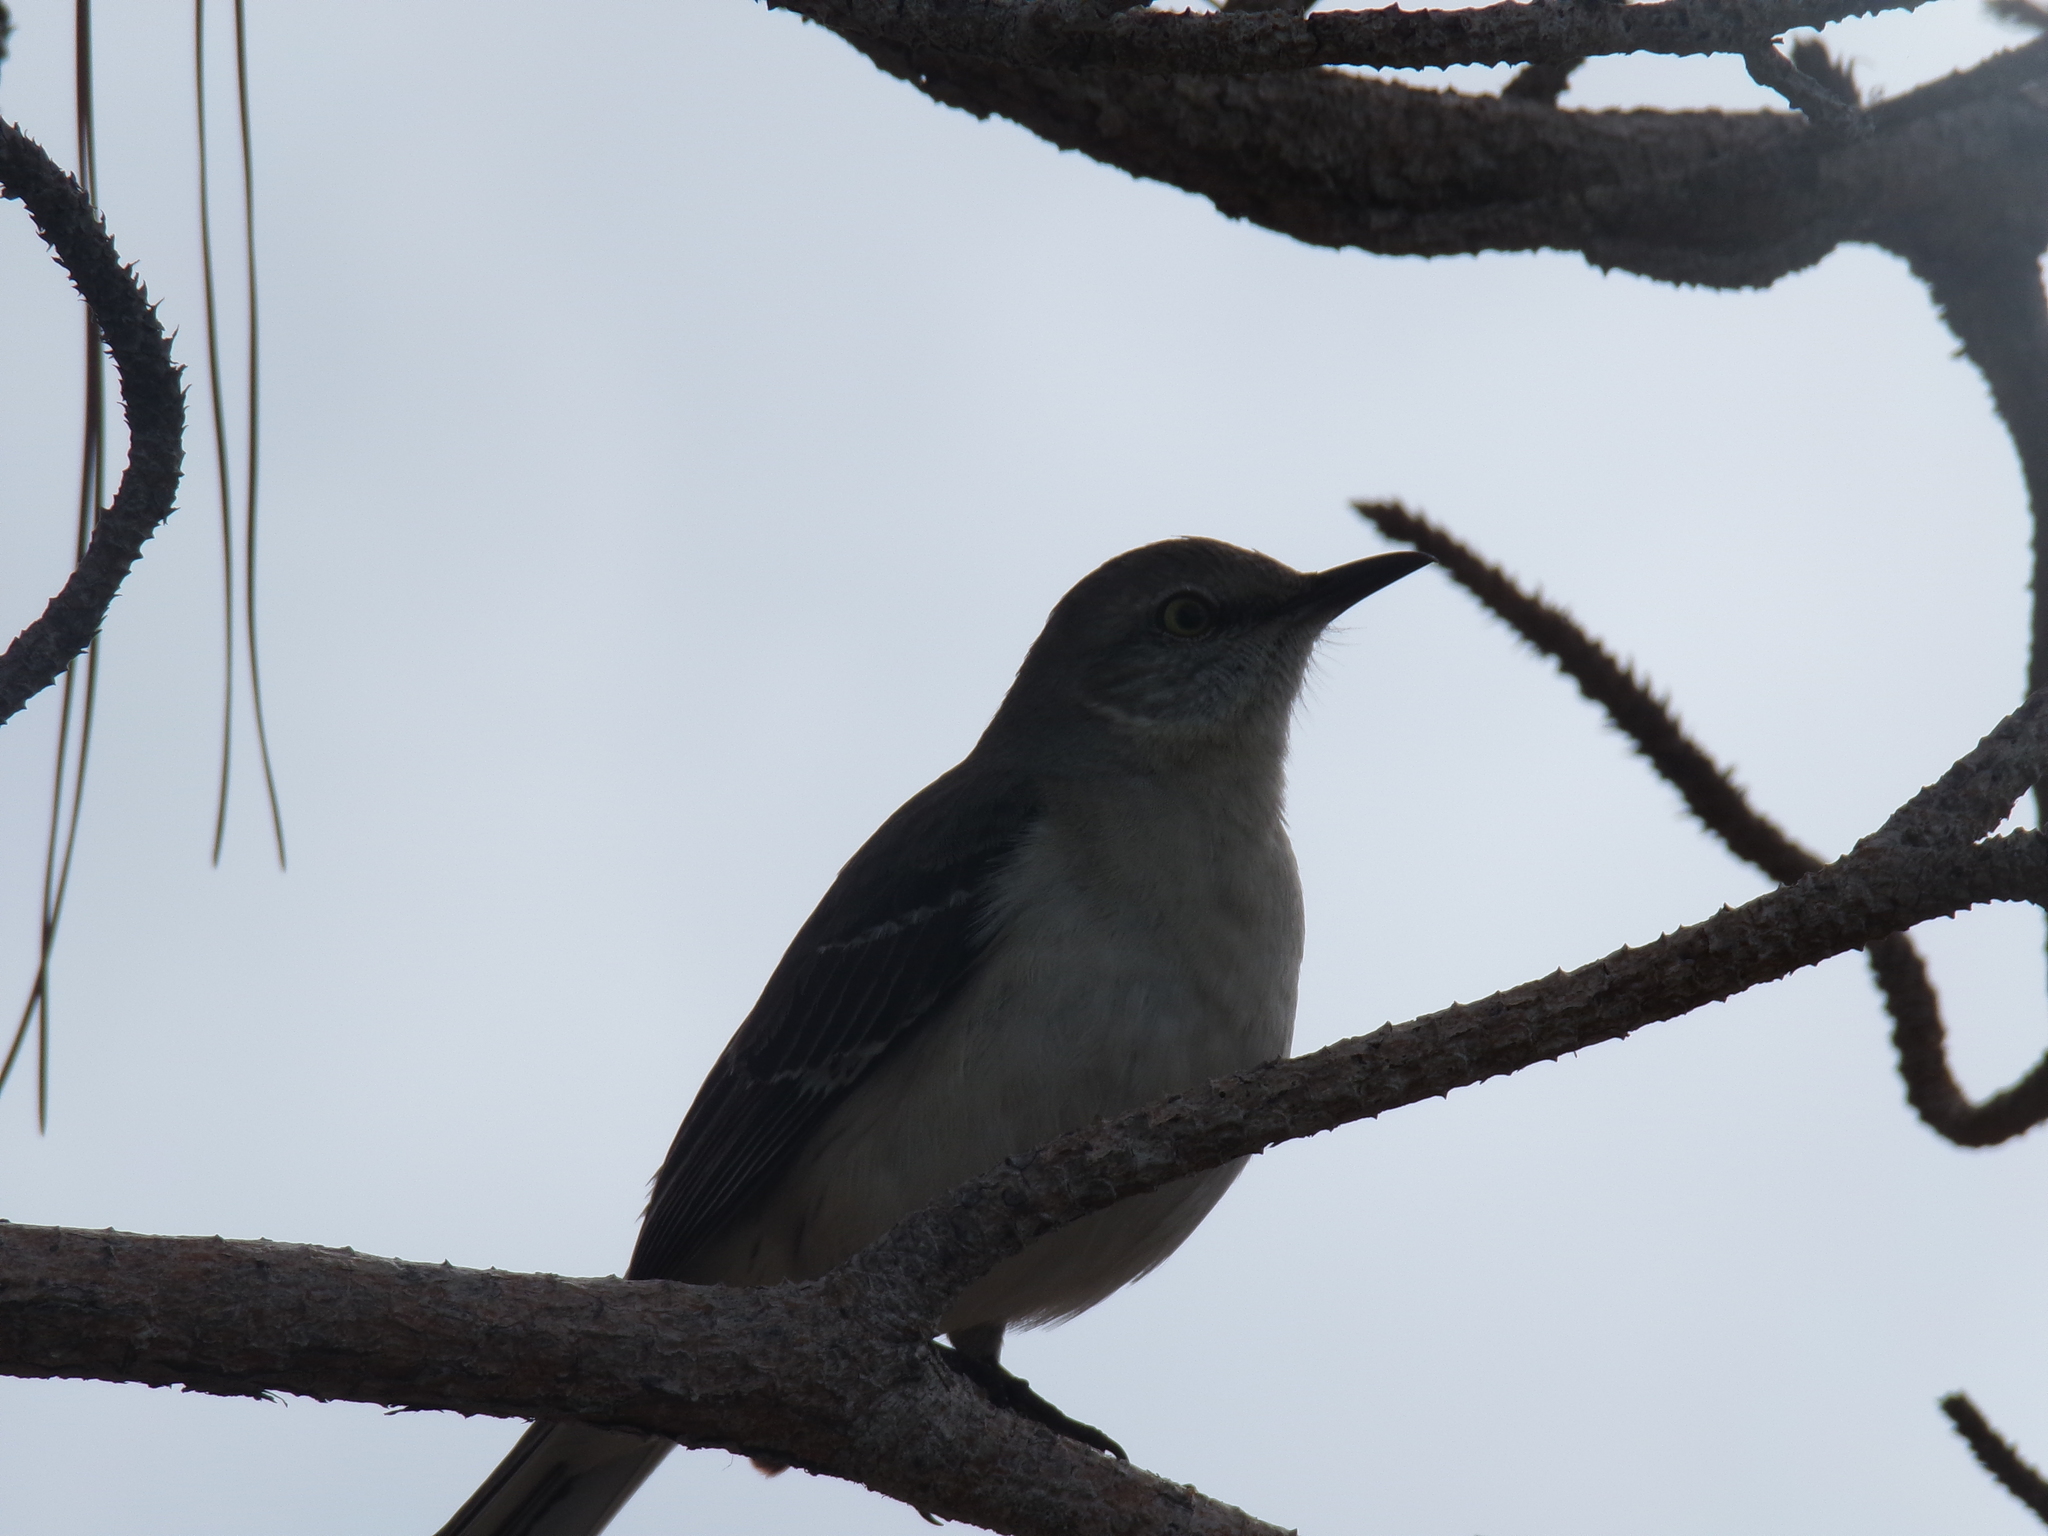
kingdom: Animalia
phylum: Chordata
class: Aves
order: Passeriformes
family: Mimidae
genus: Mimus
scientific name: Mimus polyglottos
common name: Northern mockingbird
